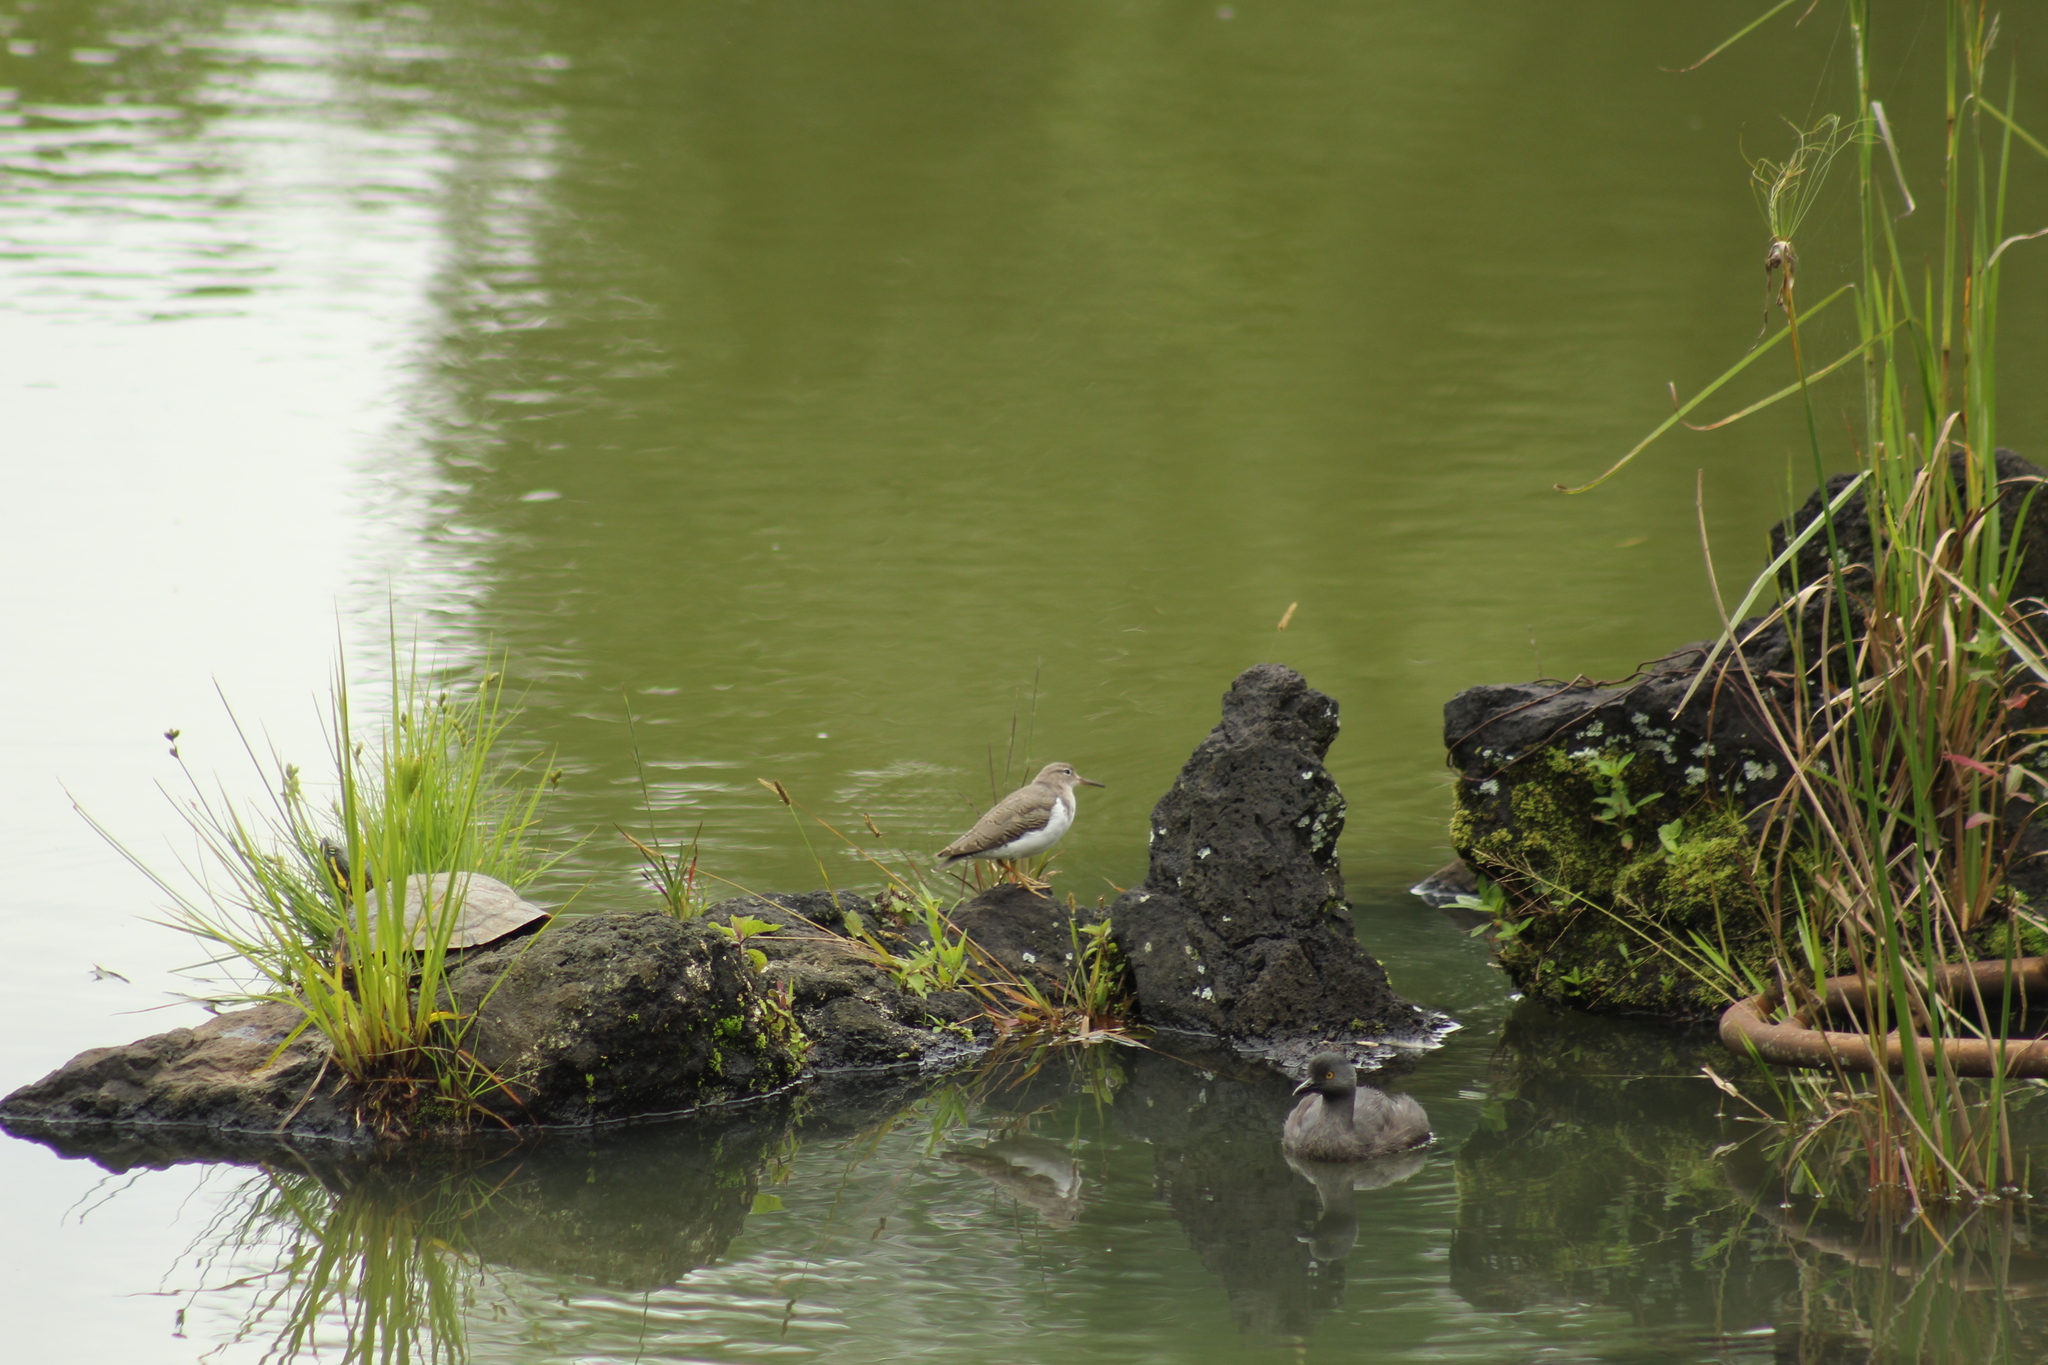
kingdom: Animalia
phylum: Chordata
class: Aves
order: Charadriiformes
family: Scolopacidae
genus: Actitis
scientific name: Actitis macularius
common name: Spotted sandpiper
